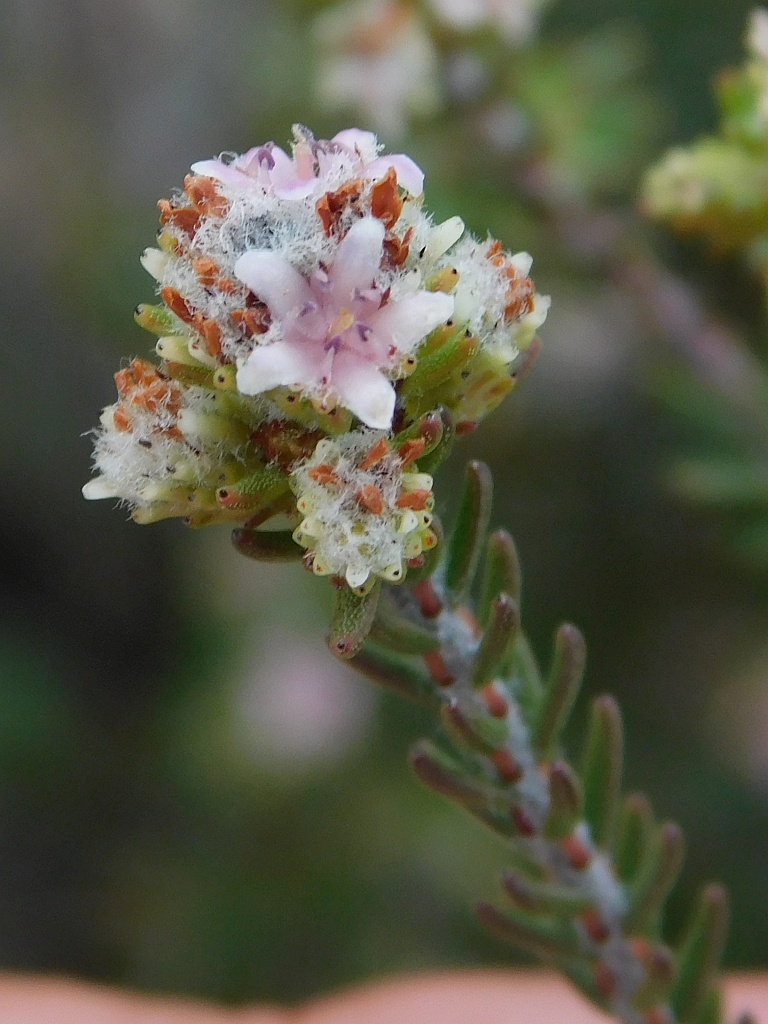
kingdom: Plantae
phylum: Tracheophyta
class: Magnoliopsida
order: Bruniales
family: Bruniaceae
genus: Staavia
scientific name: Staavia capitella
